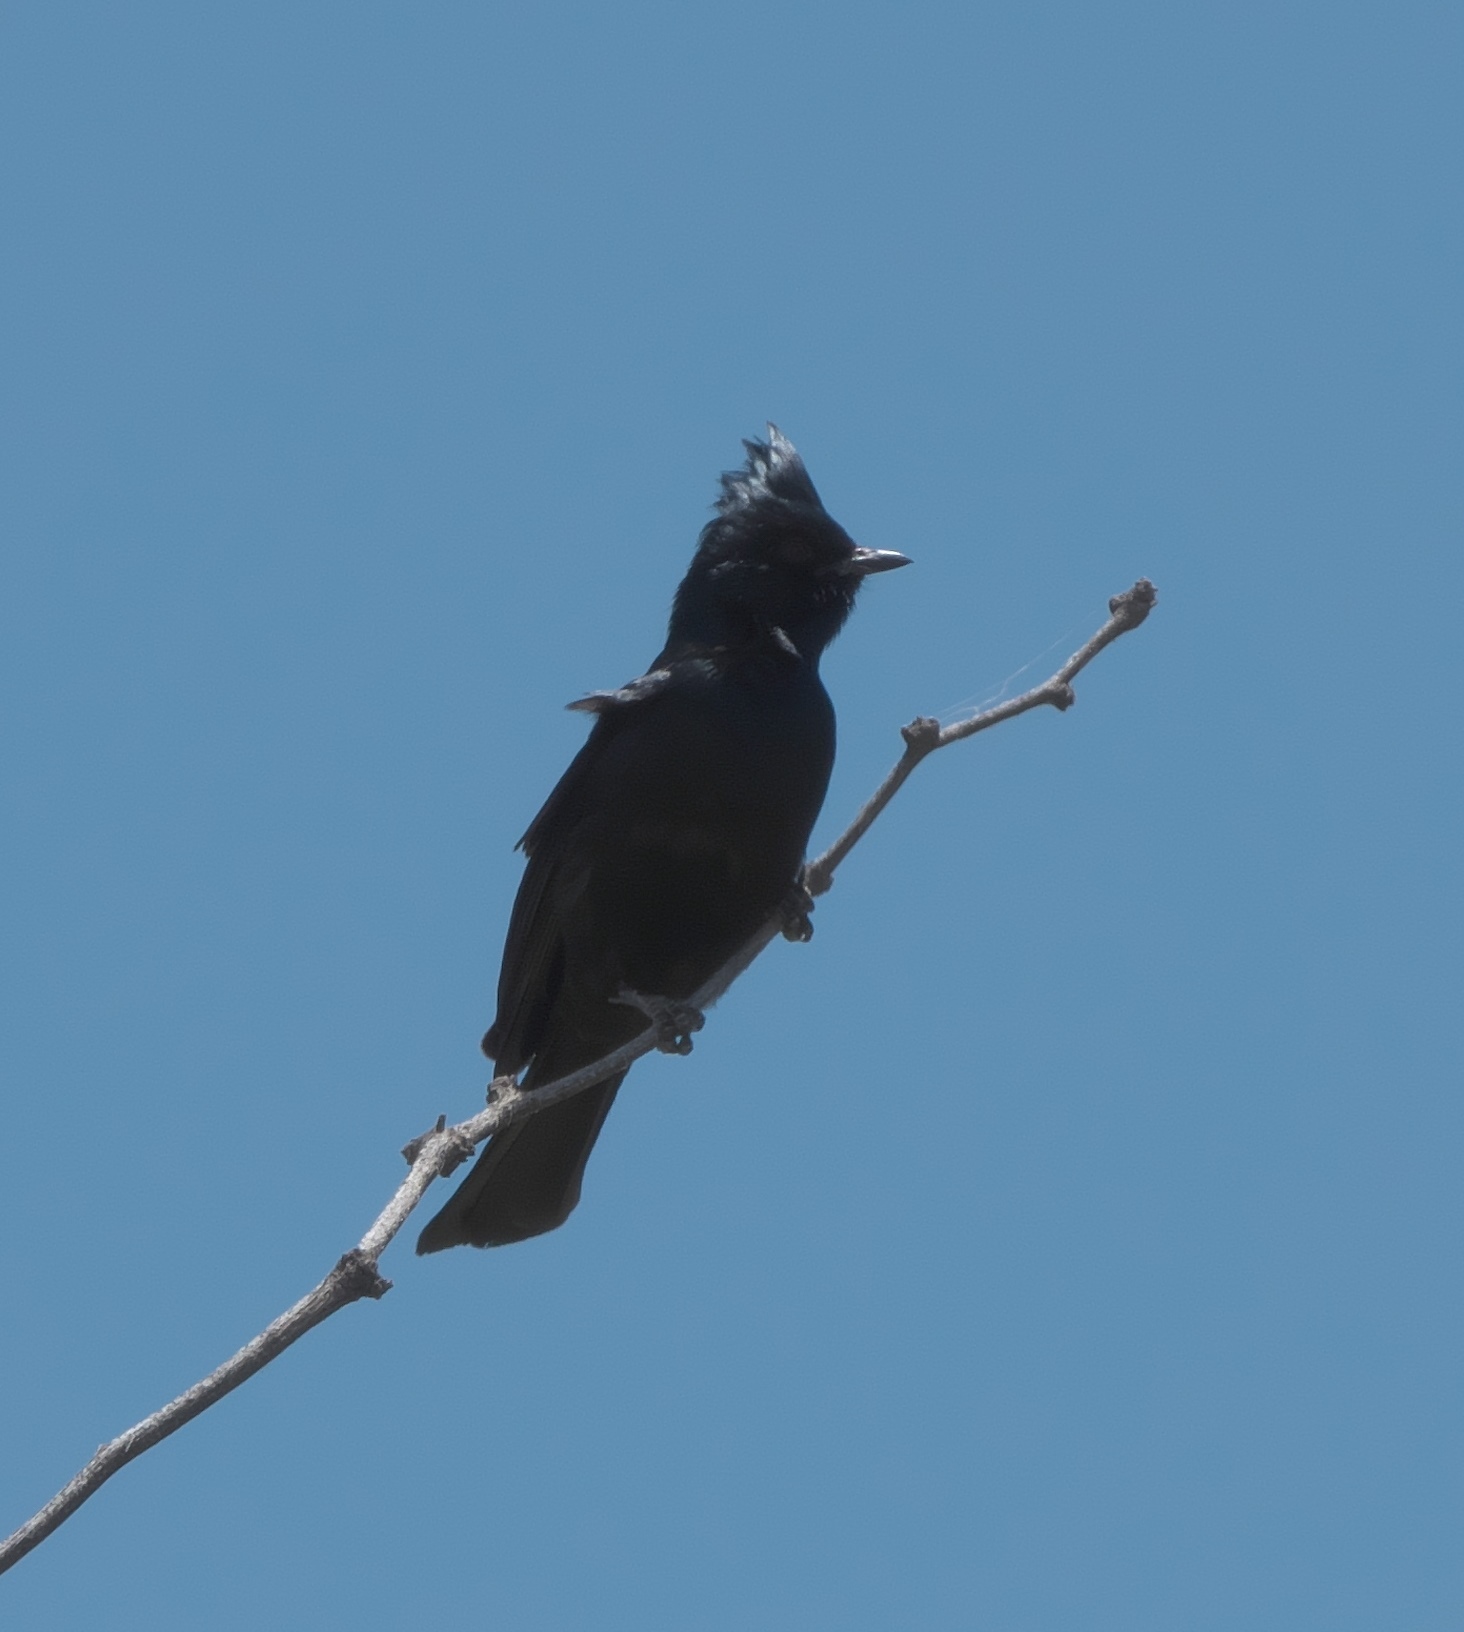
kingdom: Animalia
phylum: Chordata
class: Aves
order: Passeriformes
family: Ptilogonatidae
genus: Phainopepla
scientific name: Phainopepla nitens
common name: Phainopepla
